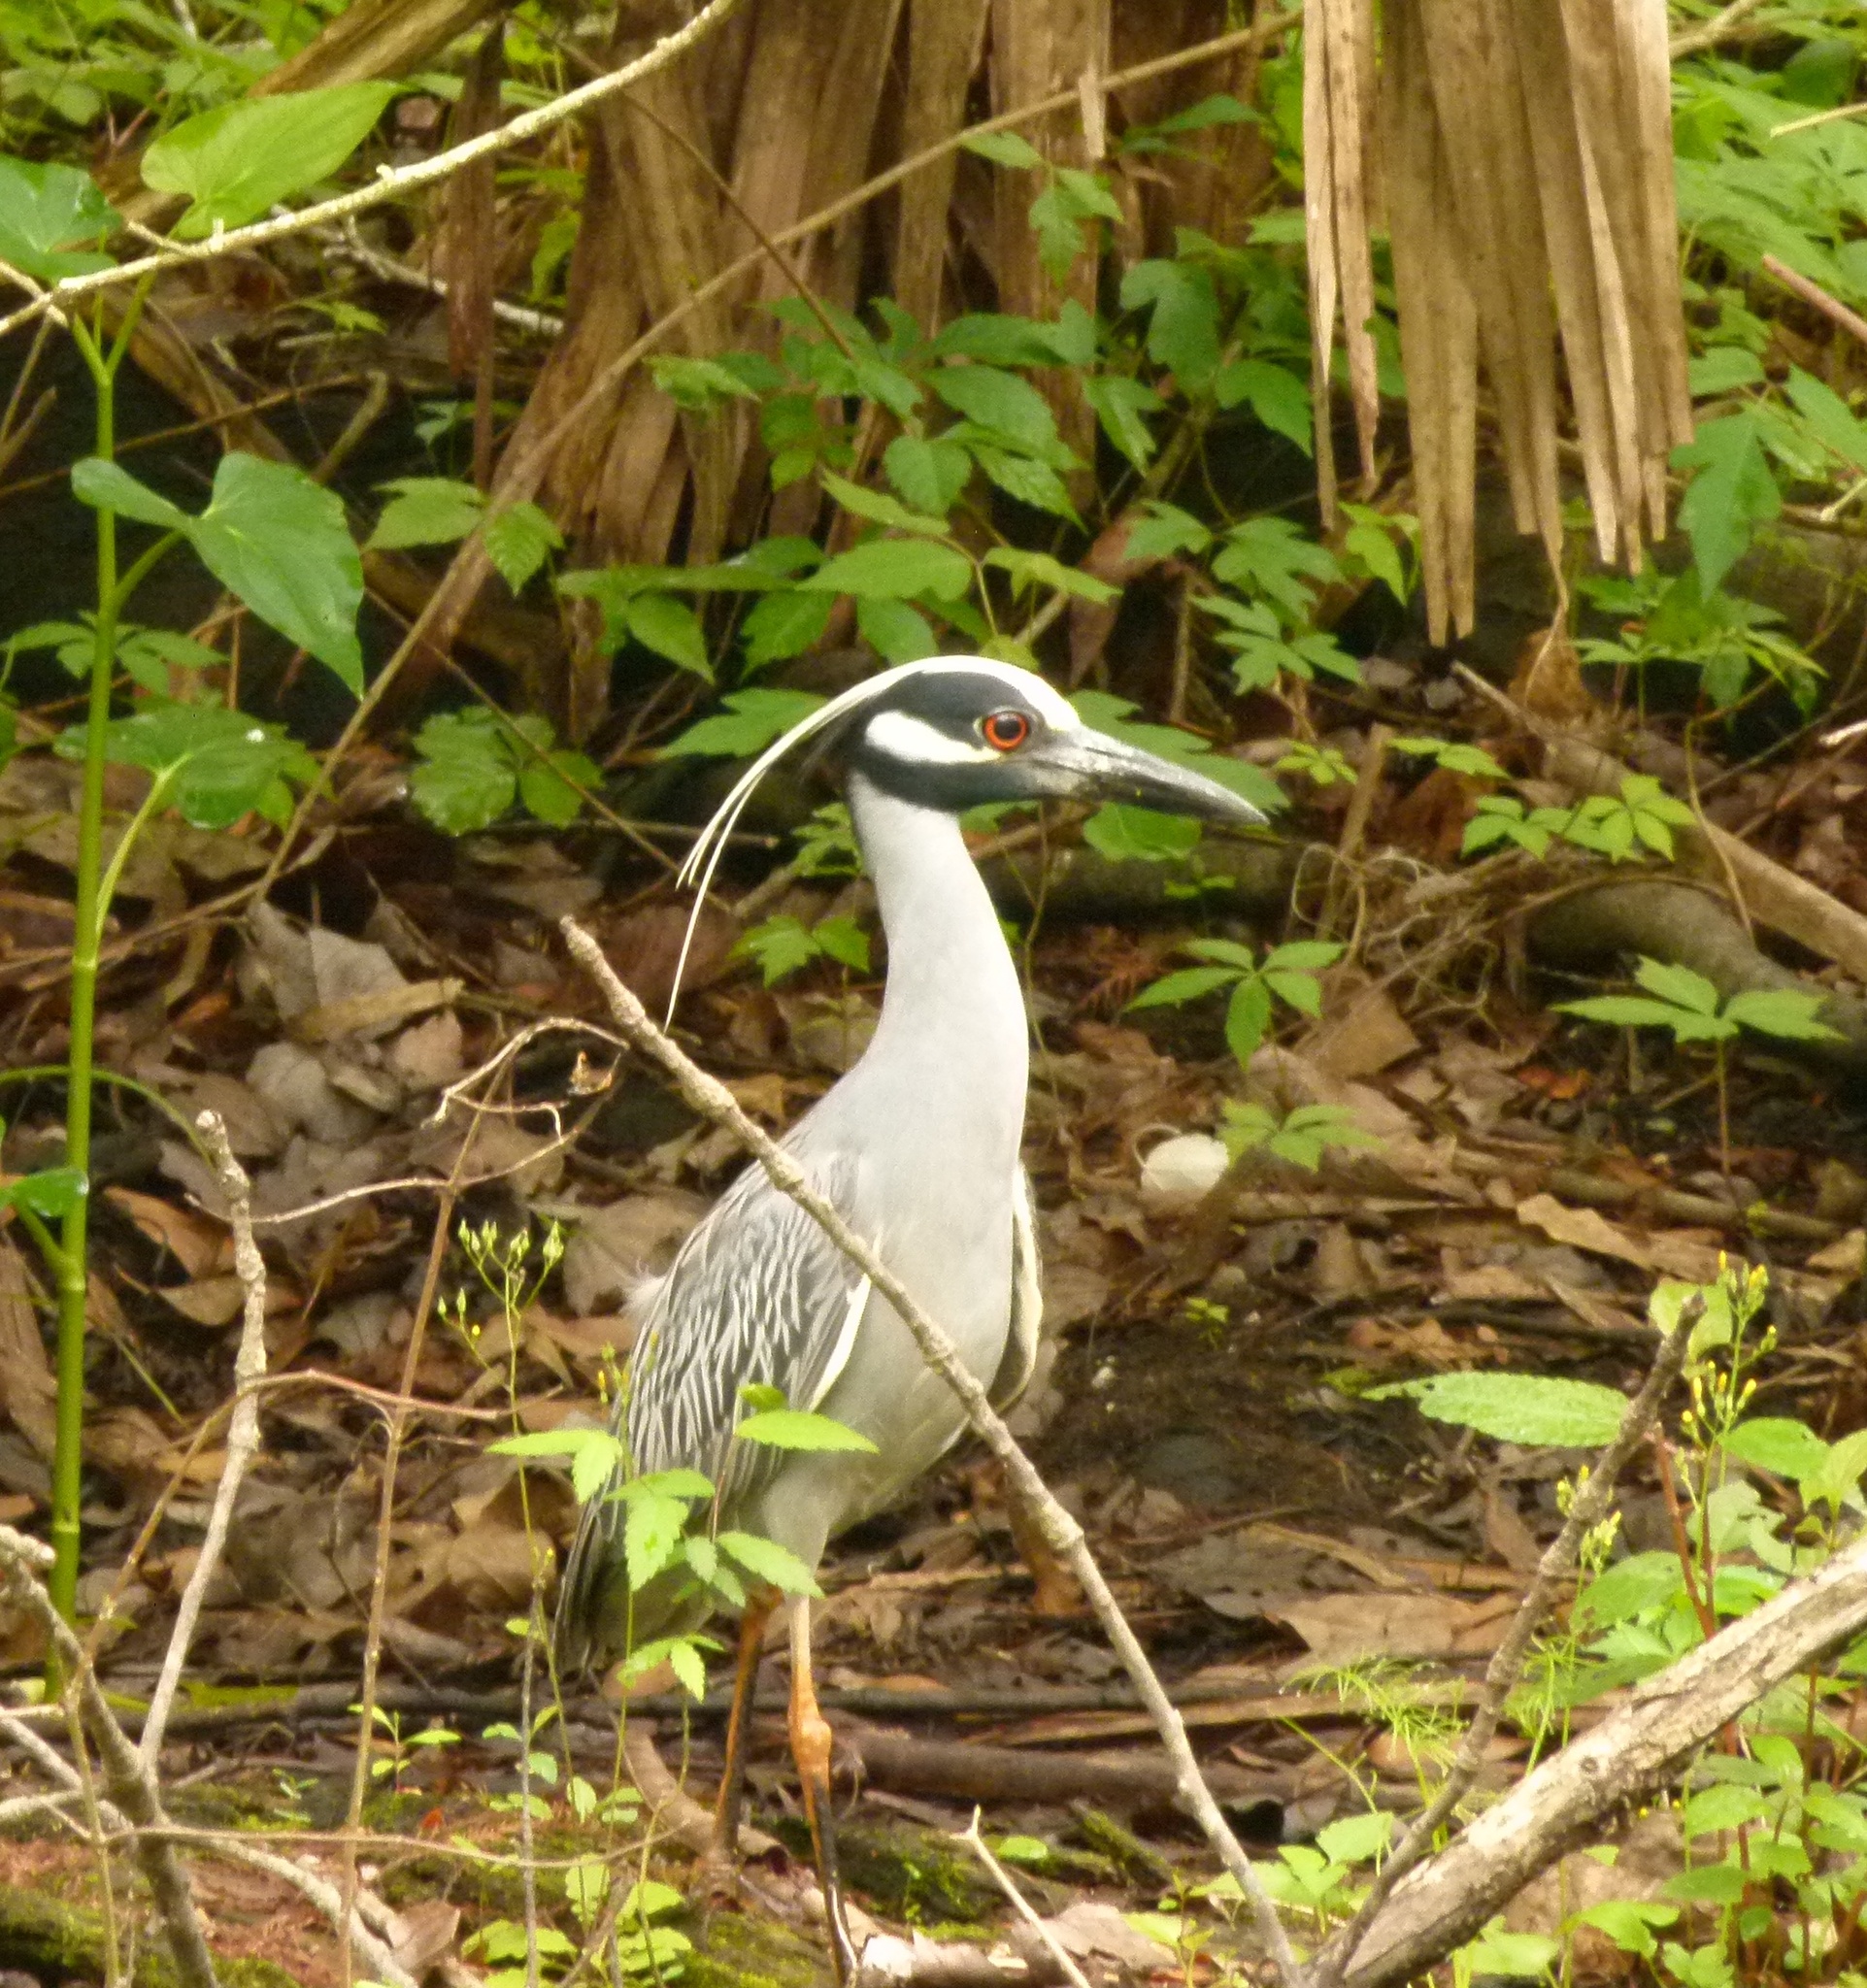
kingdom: Animalia
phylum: Chordata
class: Aves
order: Pelecaniformes
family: Ardeidae
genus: Nyctanassa
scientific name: Nyctanassa violacea
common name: Yellow-crowned night heron
